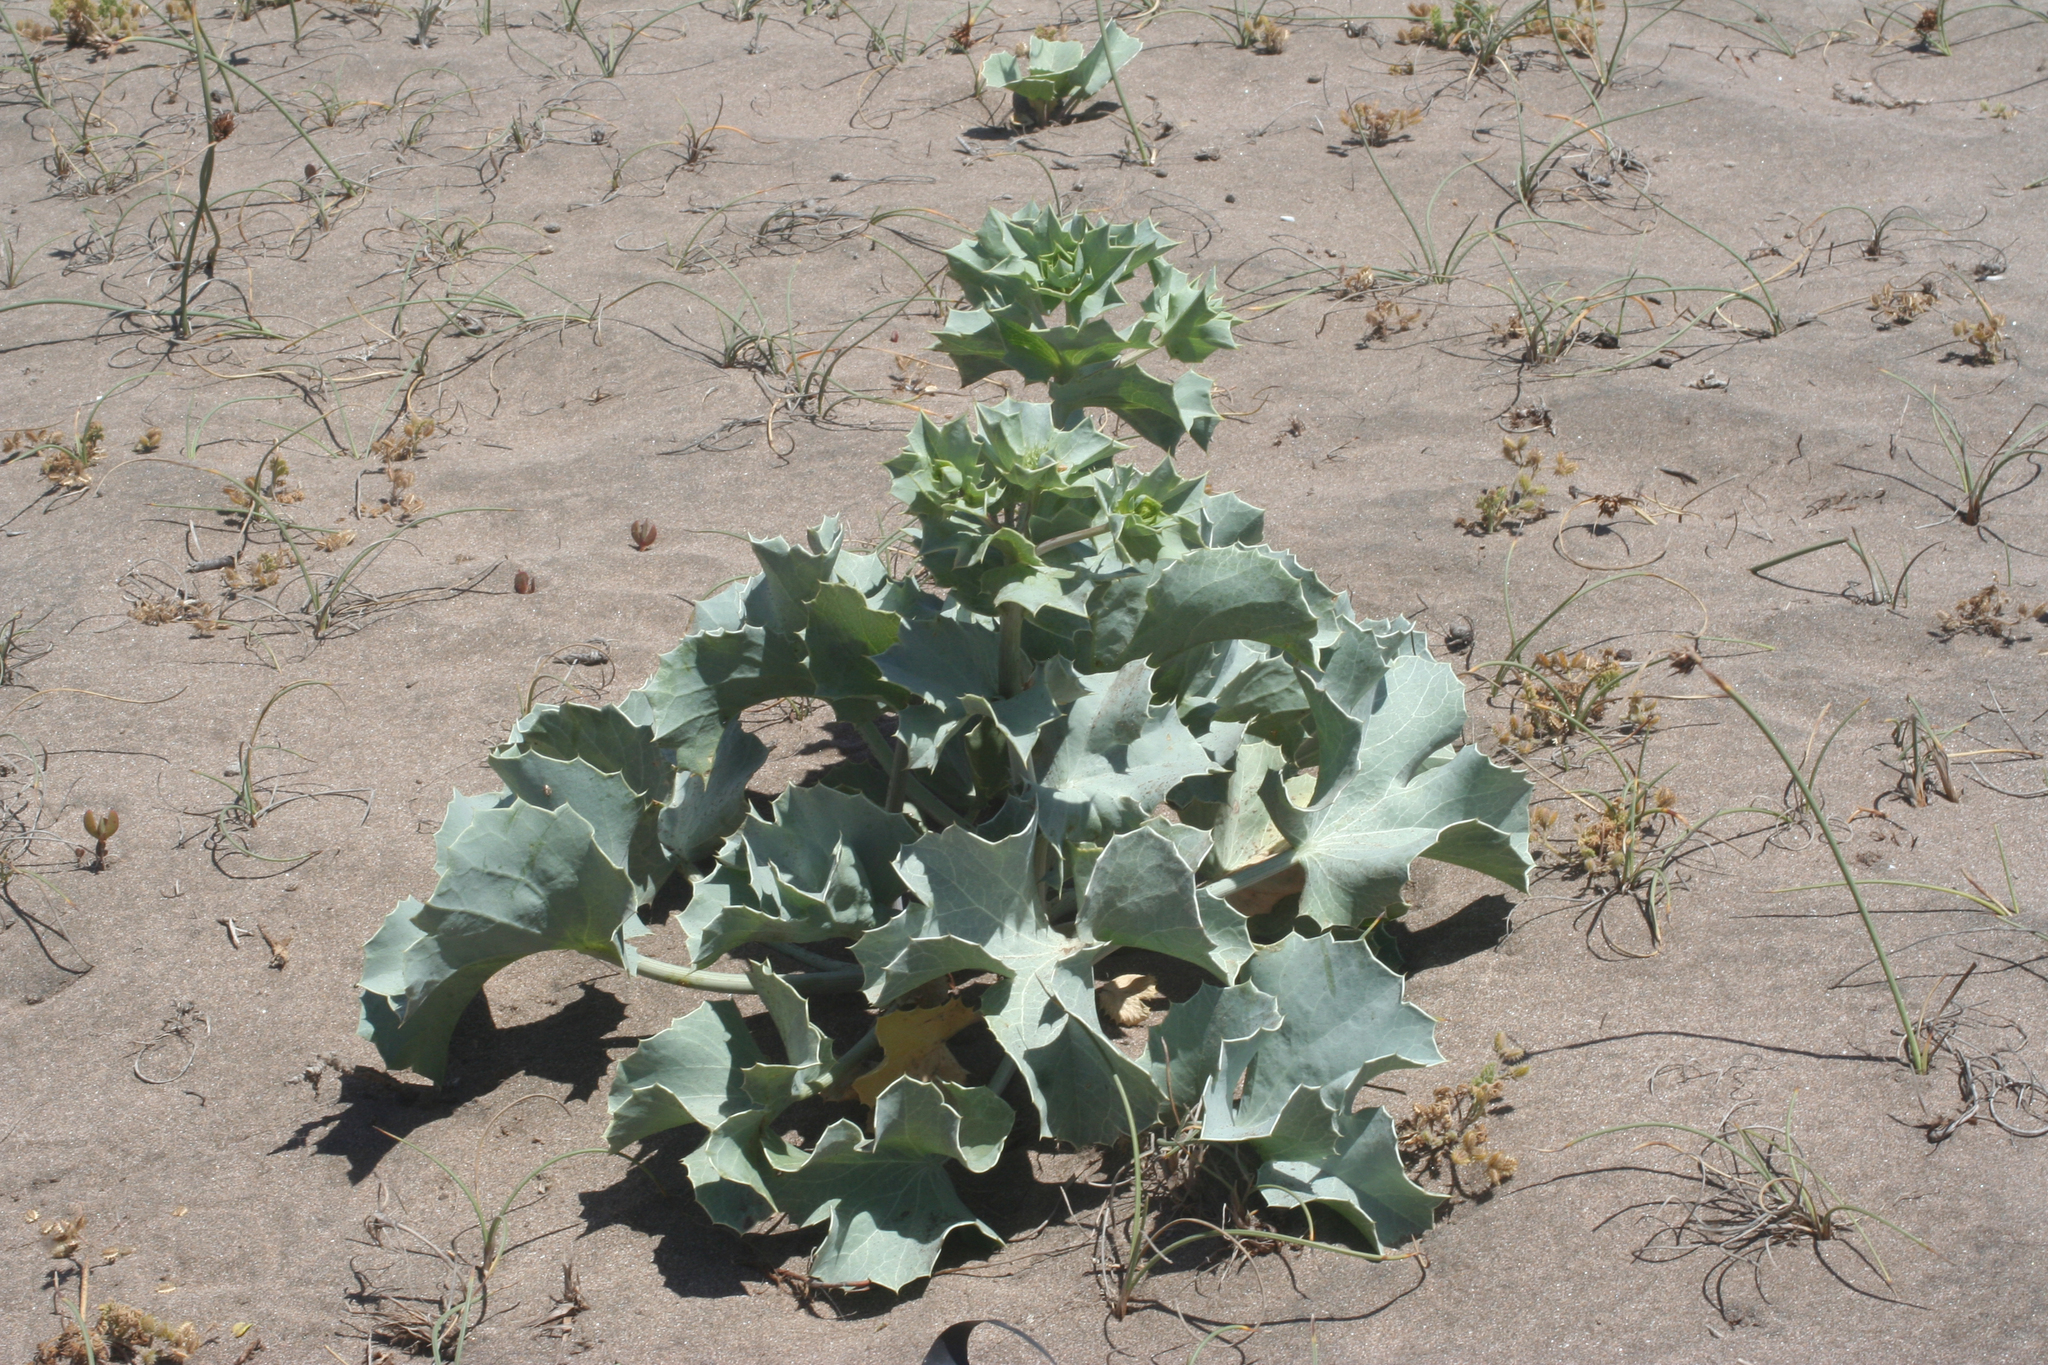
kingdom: Plantae
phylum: Tracheophyta
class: Magnoliopsida
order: Apiales
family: Apiaceae
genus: Eryngium
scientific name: Eryngium maritimum
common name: Sea-holly
